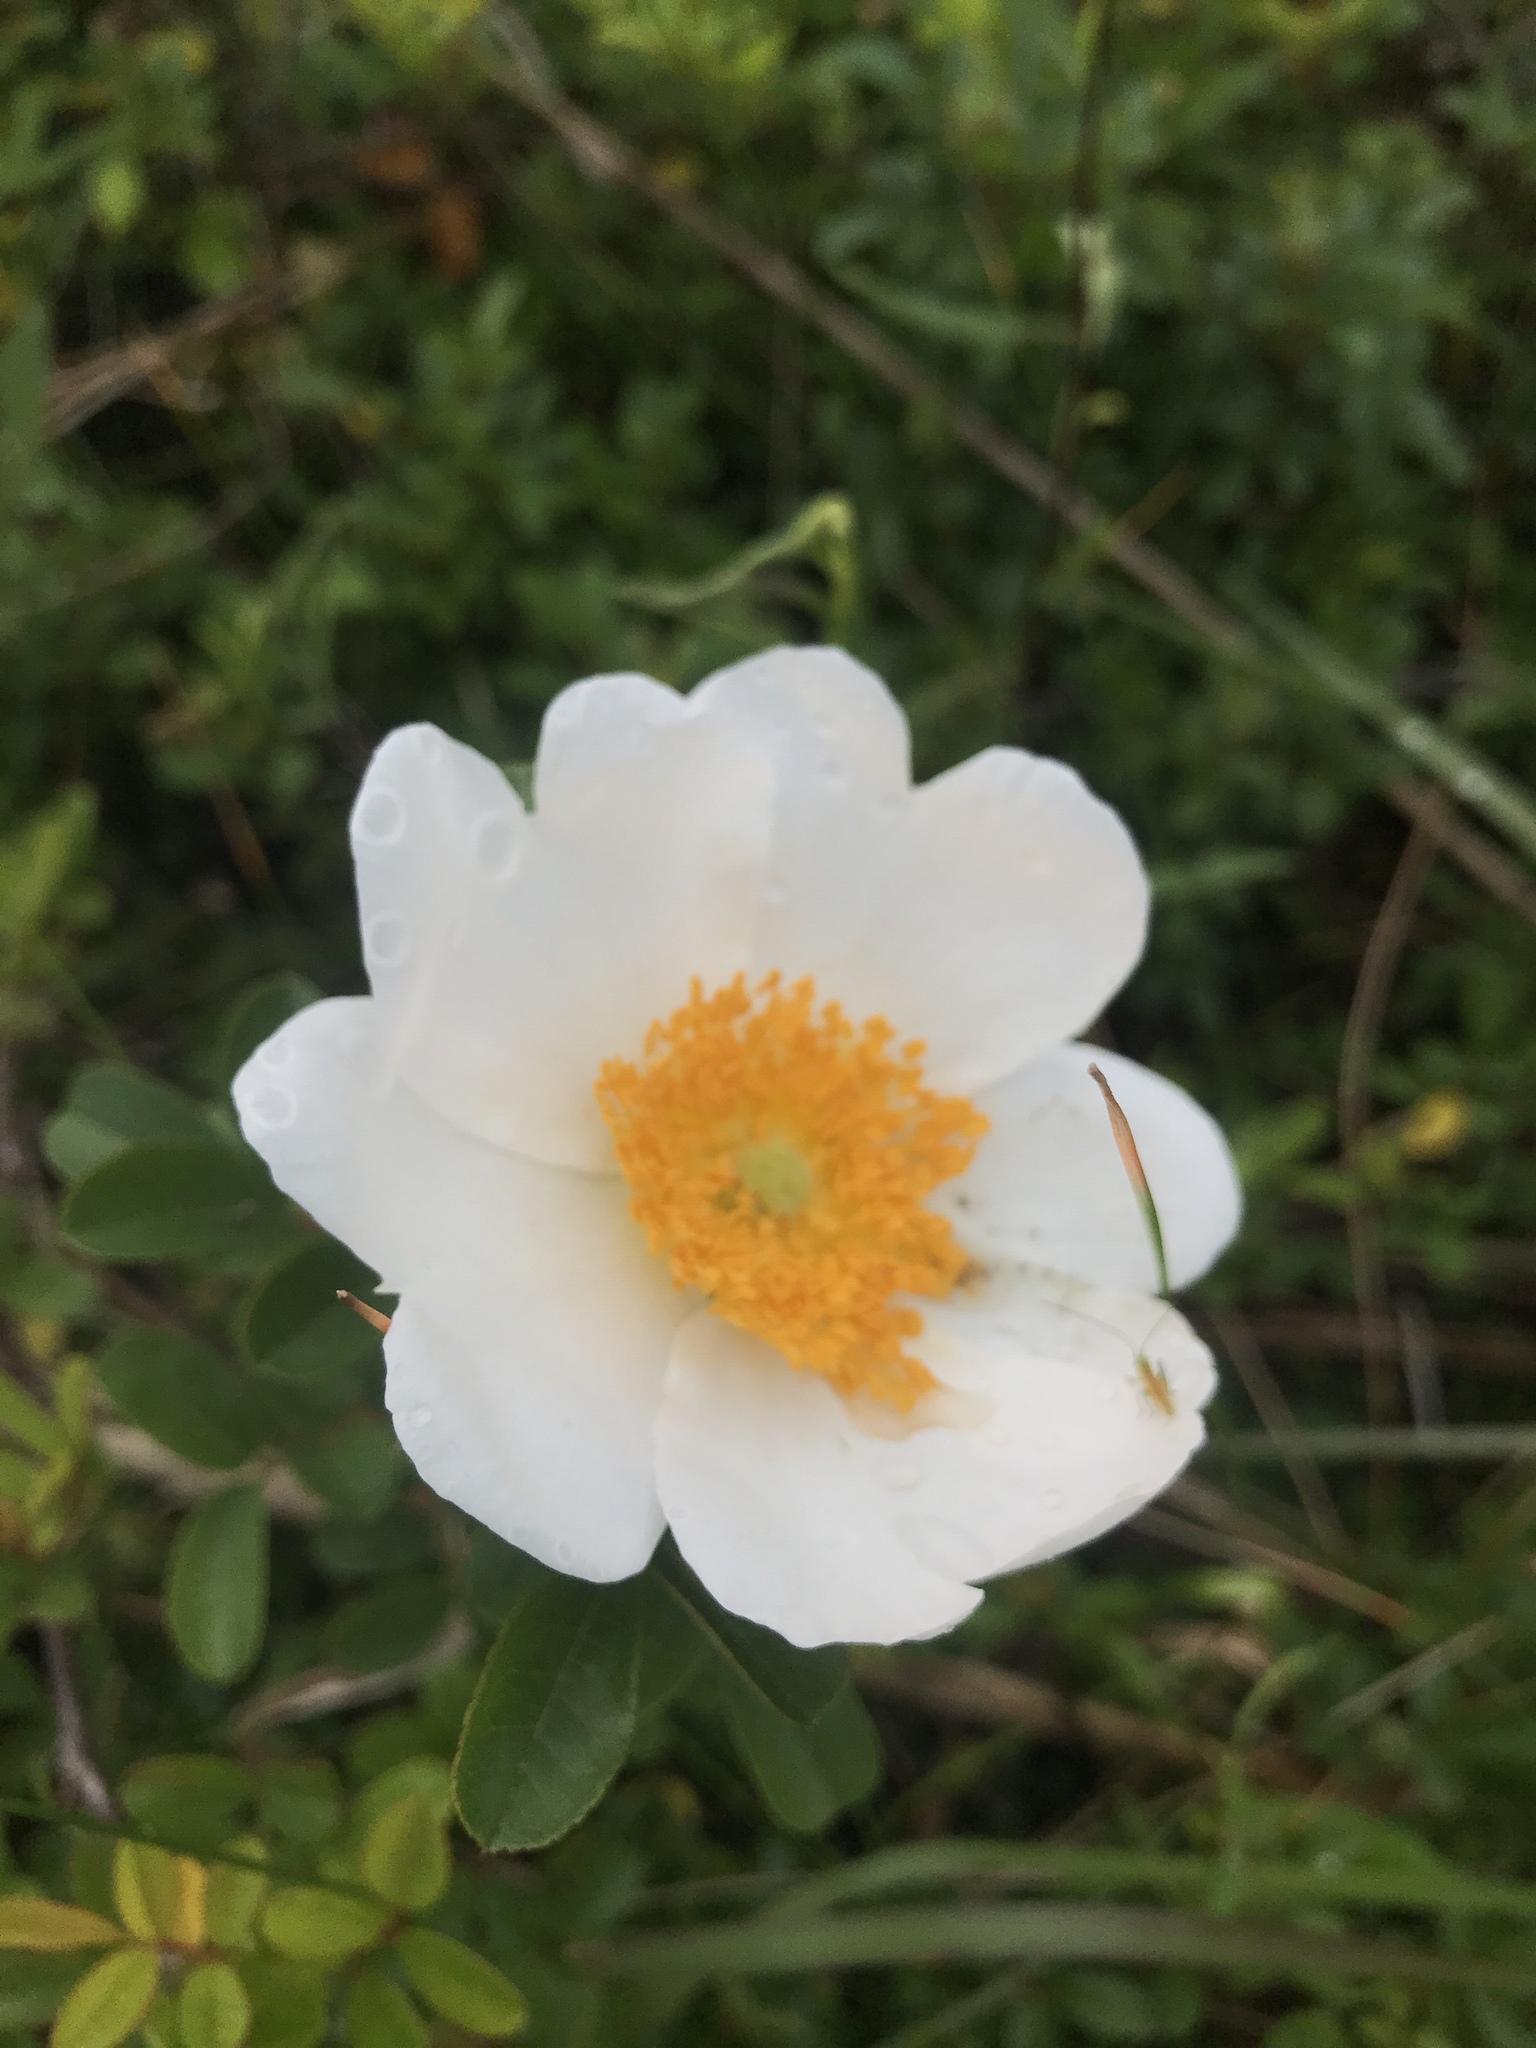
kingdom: Plantae
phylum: Tracheophyta
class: Magnoliopsida
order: Rosales
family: Rosaceae
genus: Rosa
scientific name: Rosa bracteata
